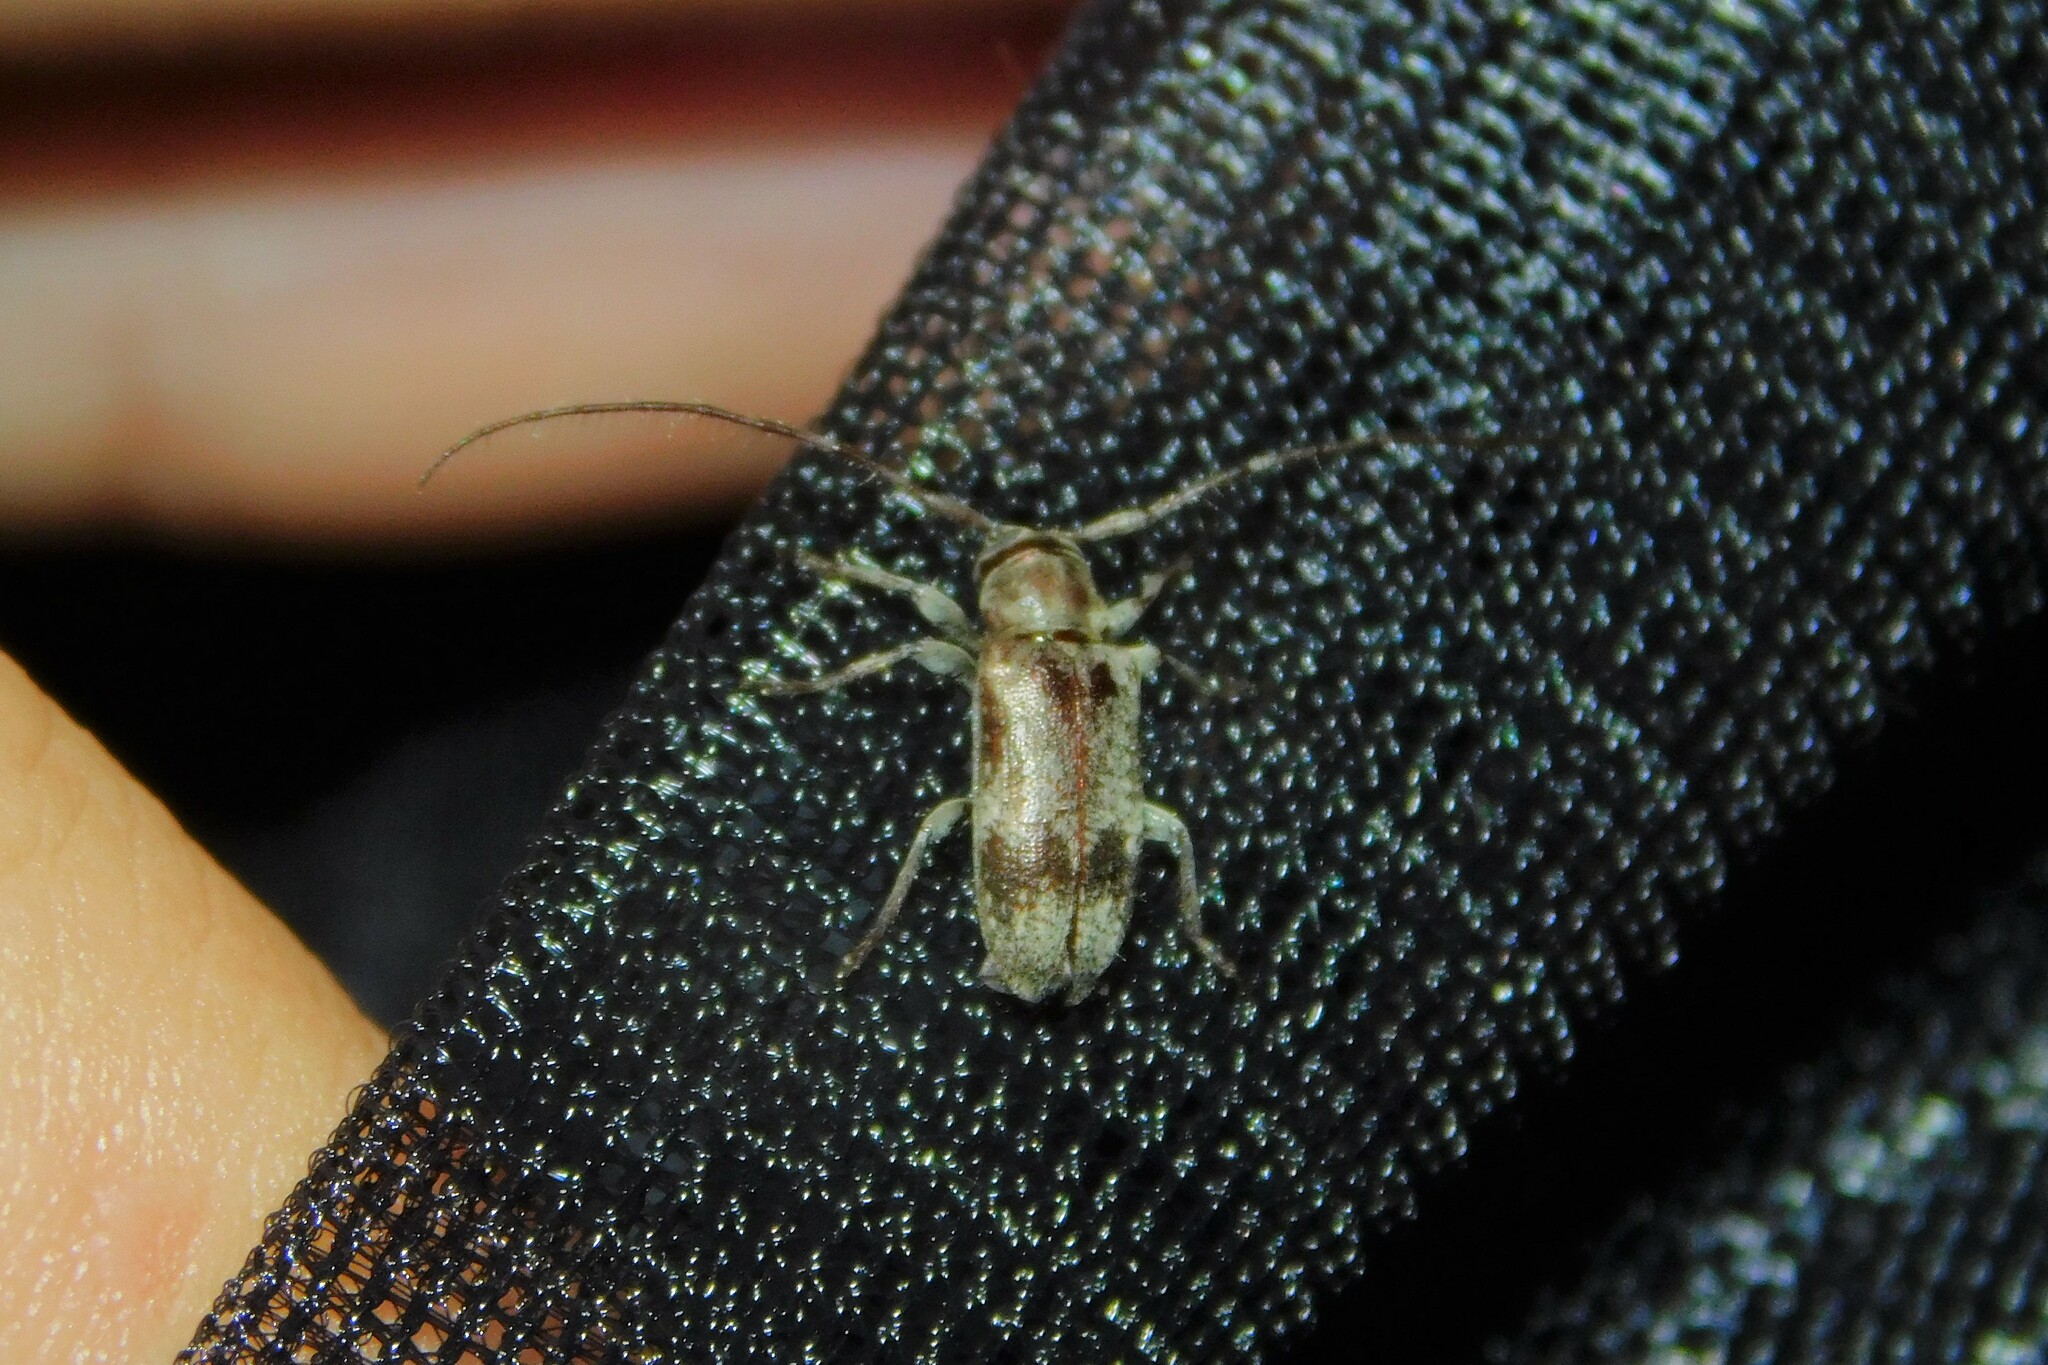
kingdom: Animalia
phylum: Arthropoda
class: Insecta
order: Coleoptera
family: Cerambycidae
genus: Exocentrus
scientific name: Exocentrus adspersus
